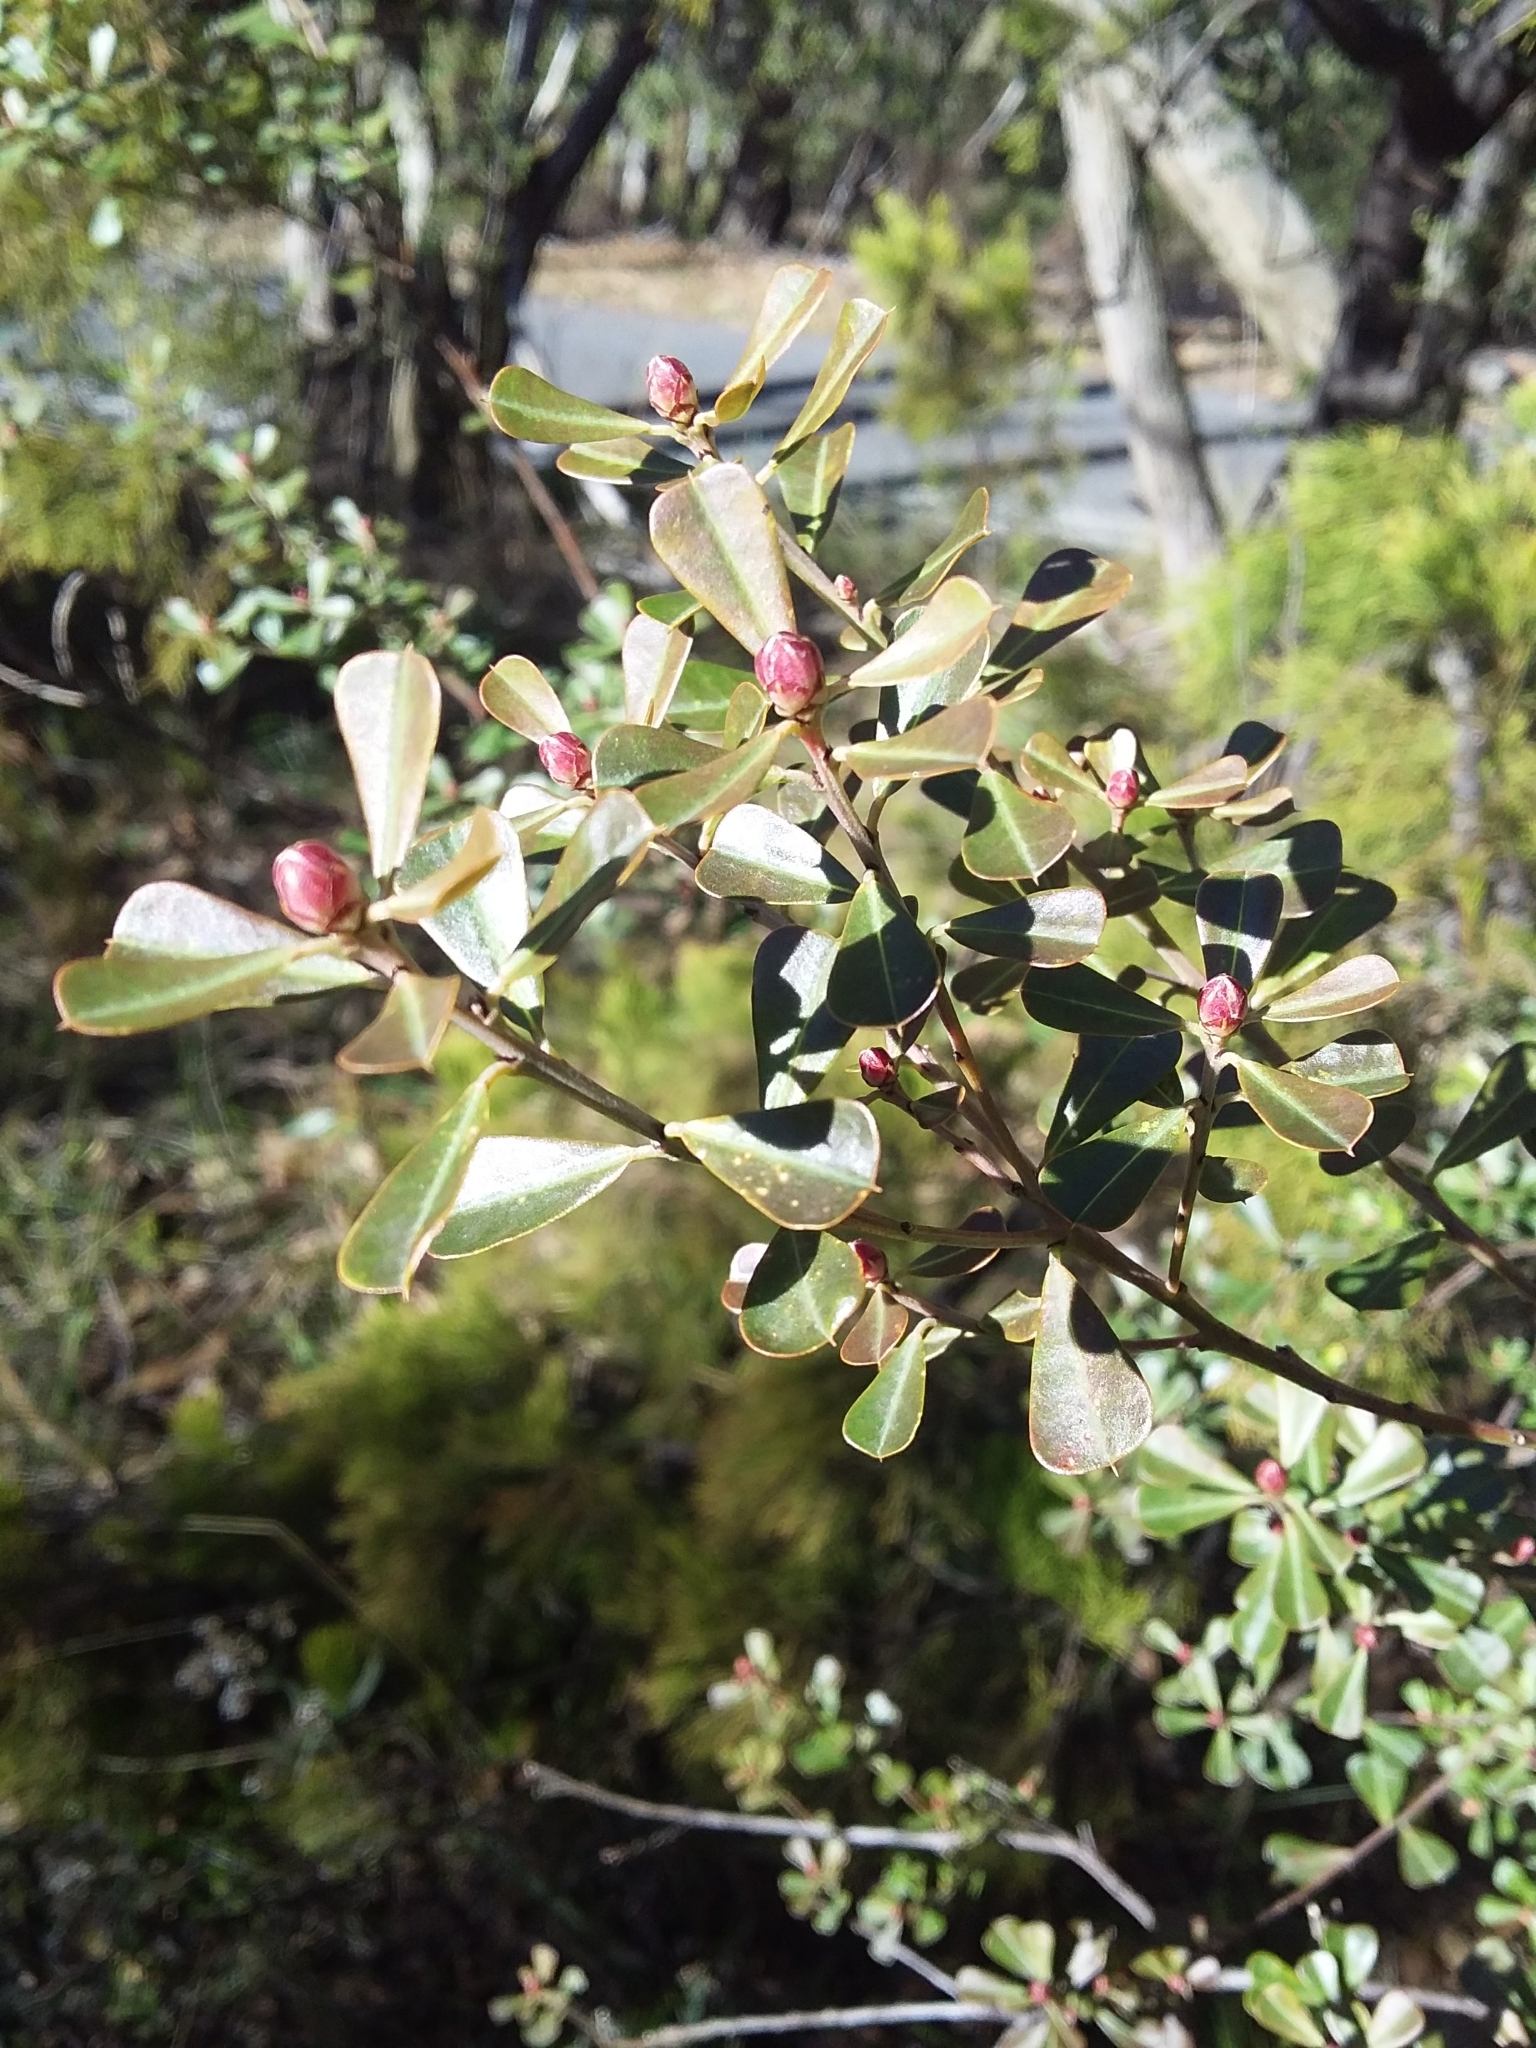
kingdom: Plantae
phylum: Tracheophyta
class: Magnoliopsida
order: Fabales
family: Fabaceae
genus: Pultenaea
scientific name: Pultenaea daphnoides
